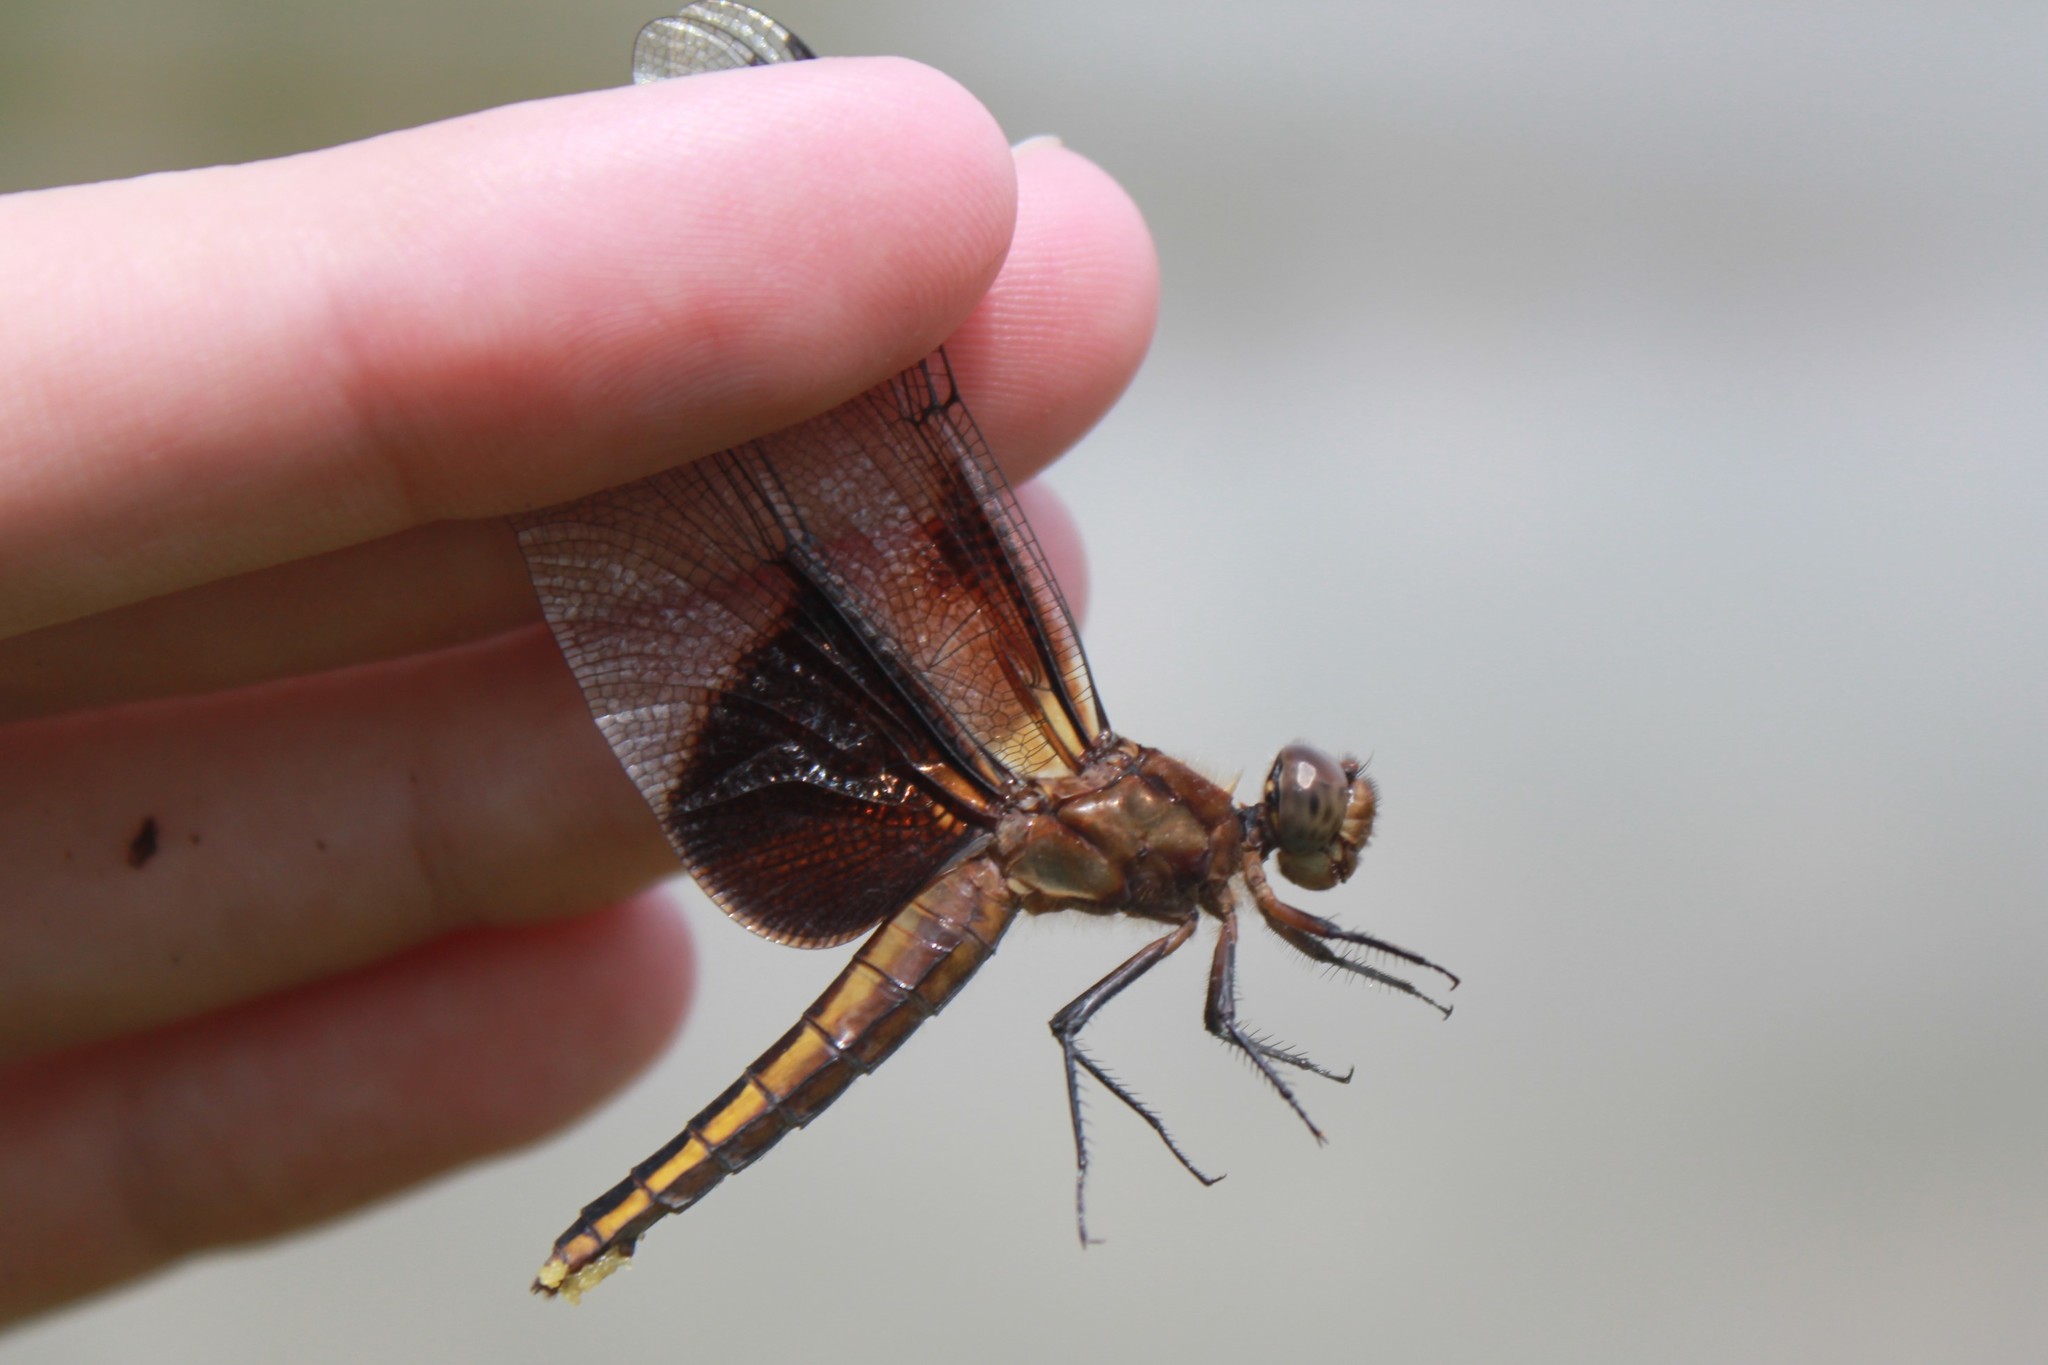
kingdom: Animalia
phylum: Arthropoda
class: Insecta
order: Odonata
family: Libellulidae
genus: Libellula
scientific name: Libellula luctuosa
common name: Widow skimmer
